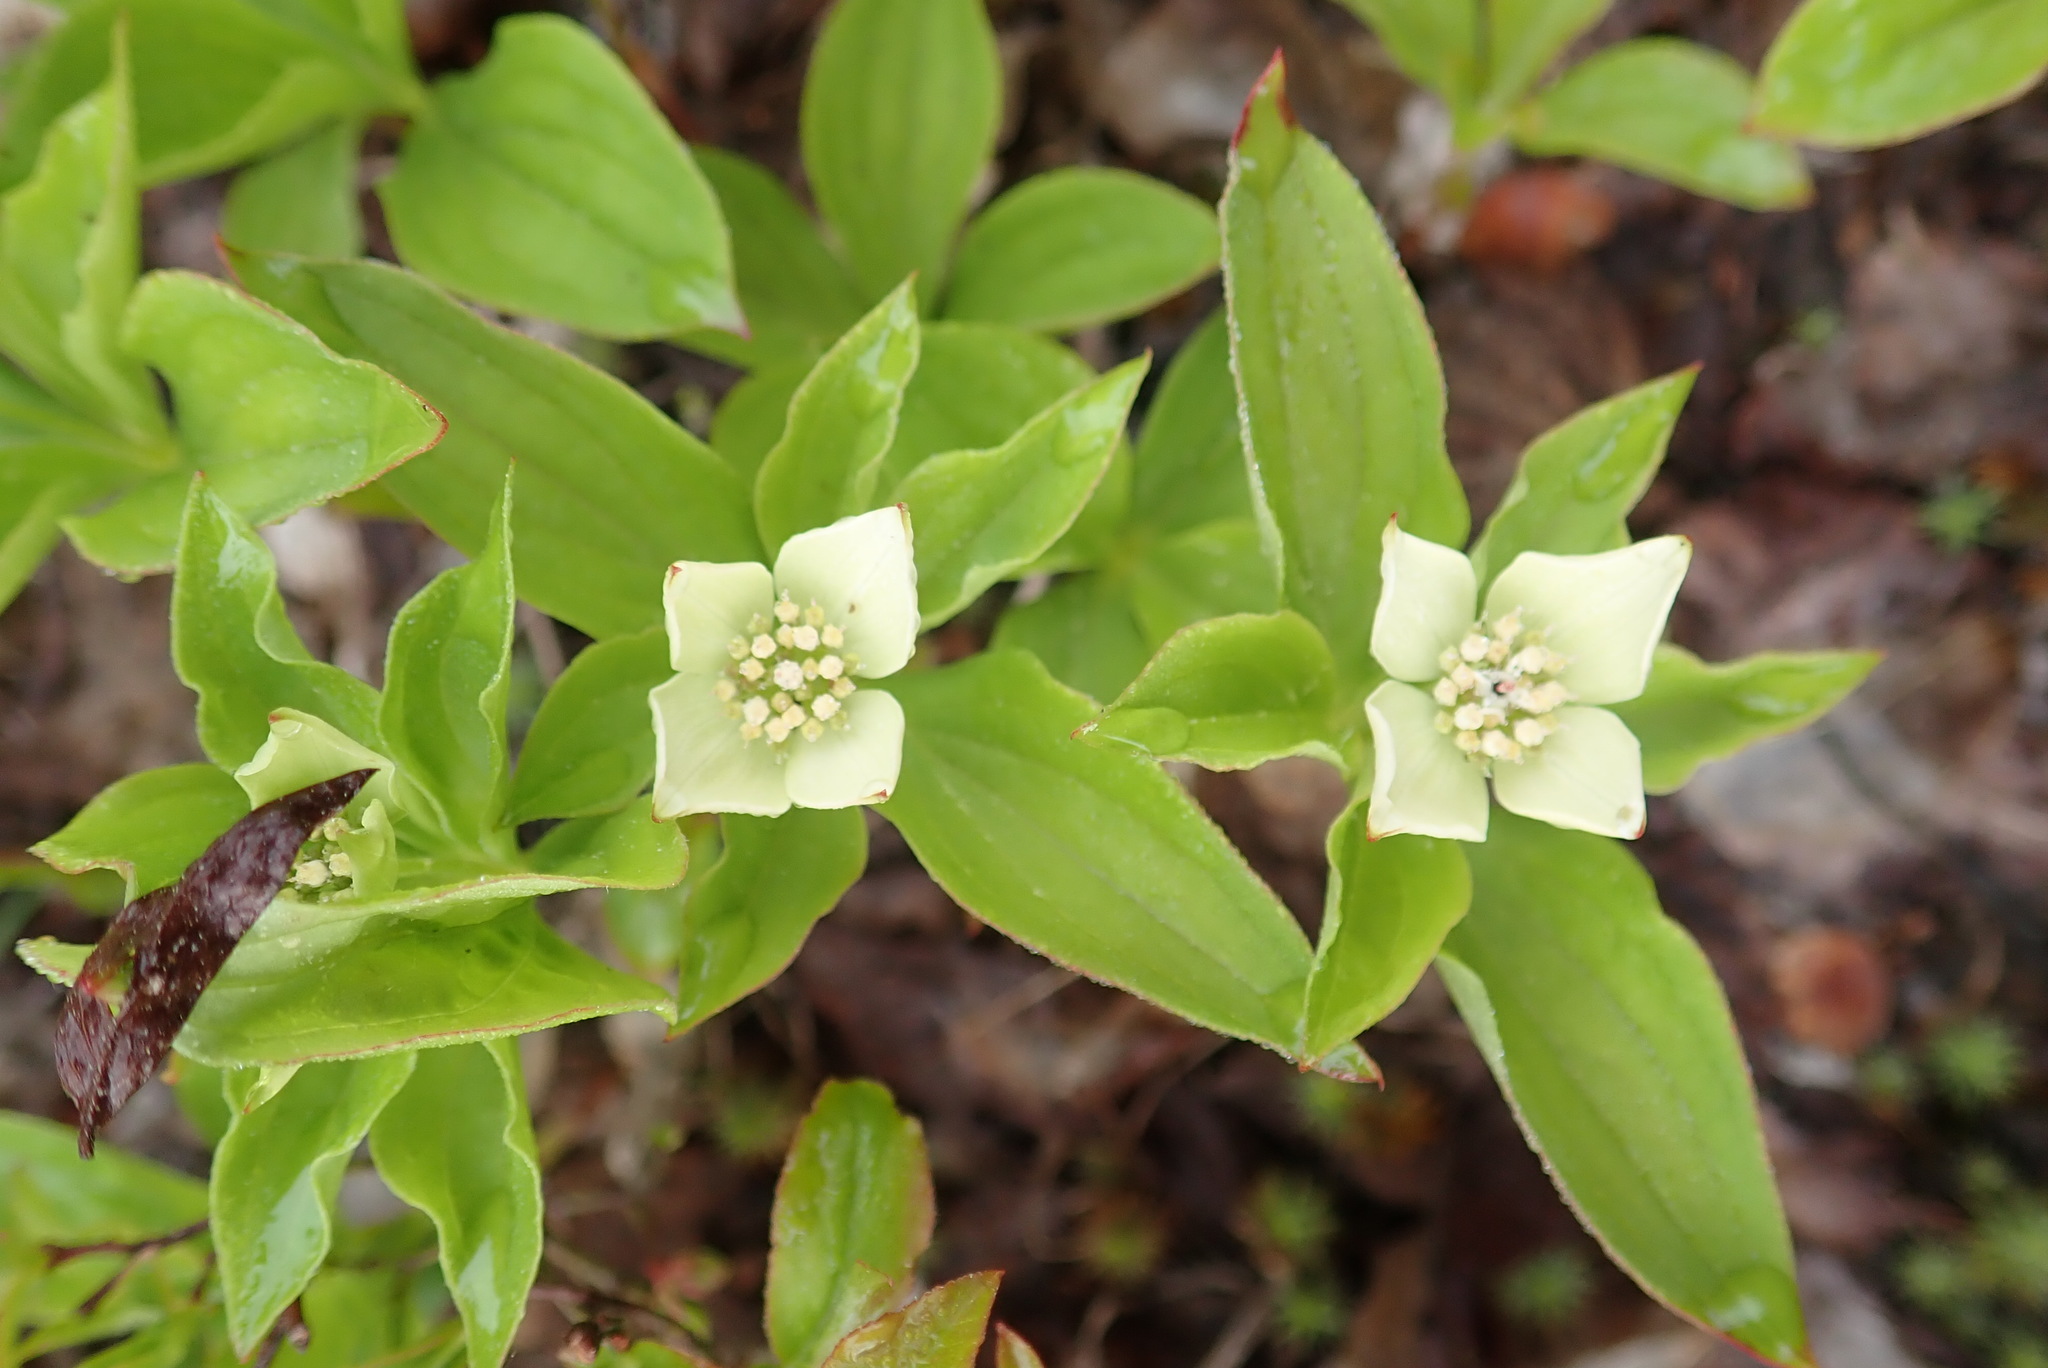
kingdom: Plantae
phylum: Tracheophyta
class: Magnoliopsida
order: Cornales
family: Cornaceae
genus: Cornus
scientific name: Cornus canadensis
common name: Creeping dogwood
